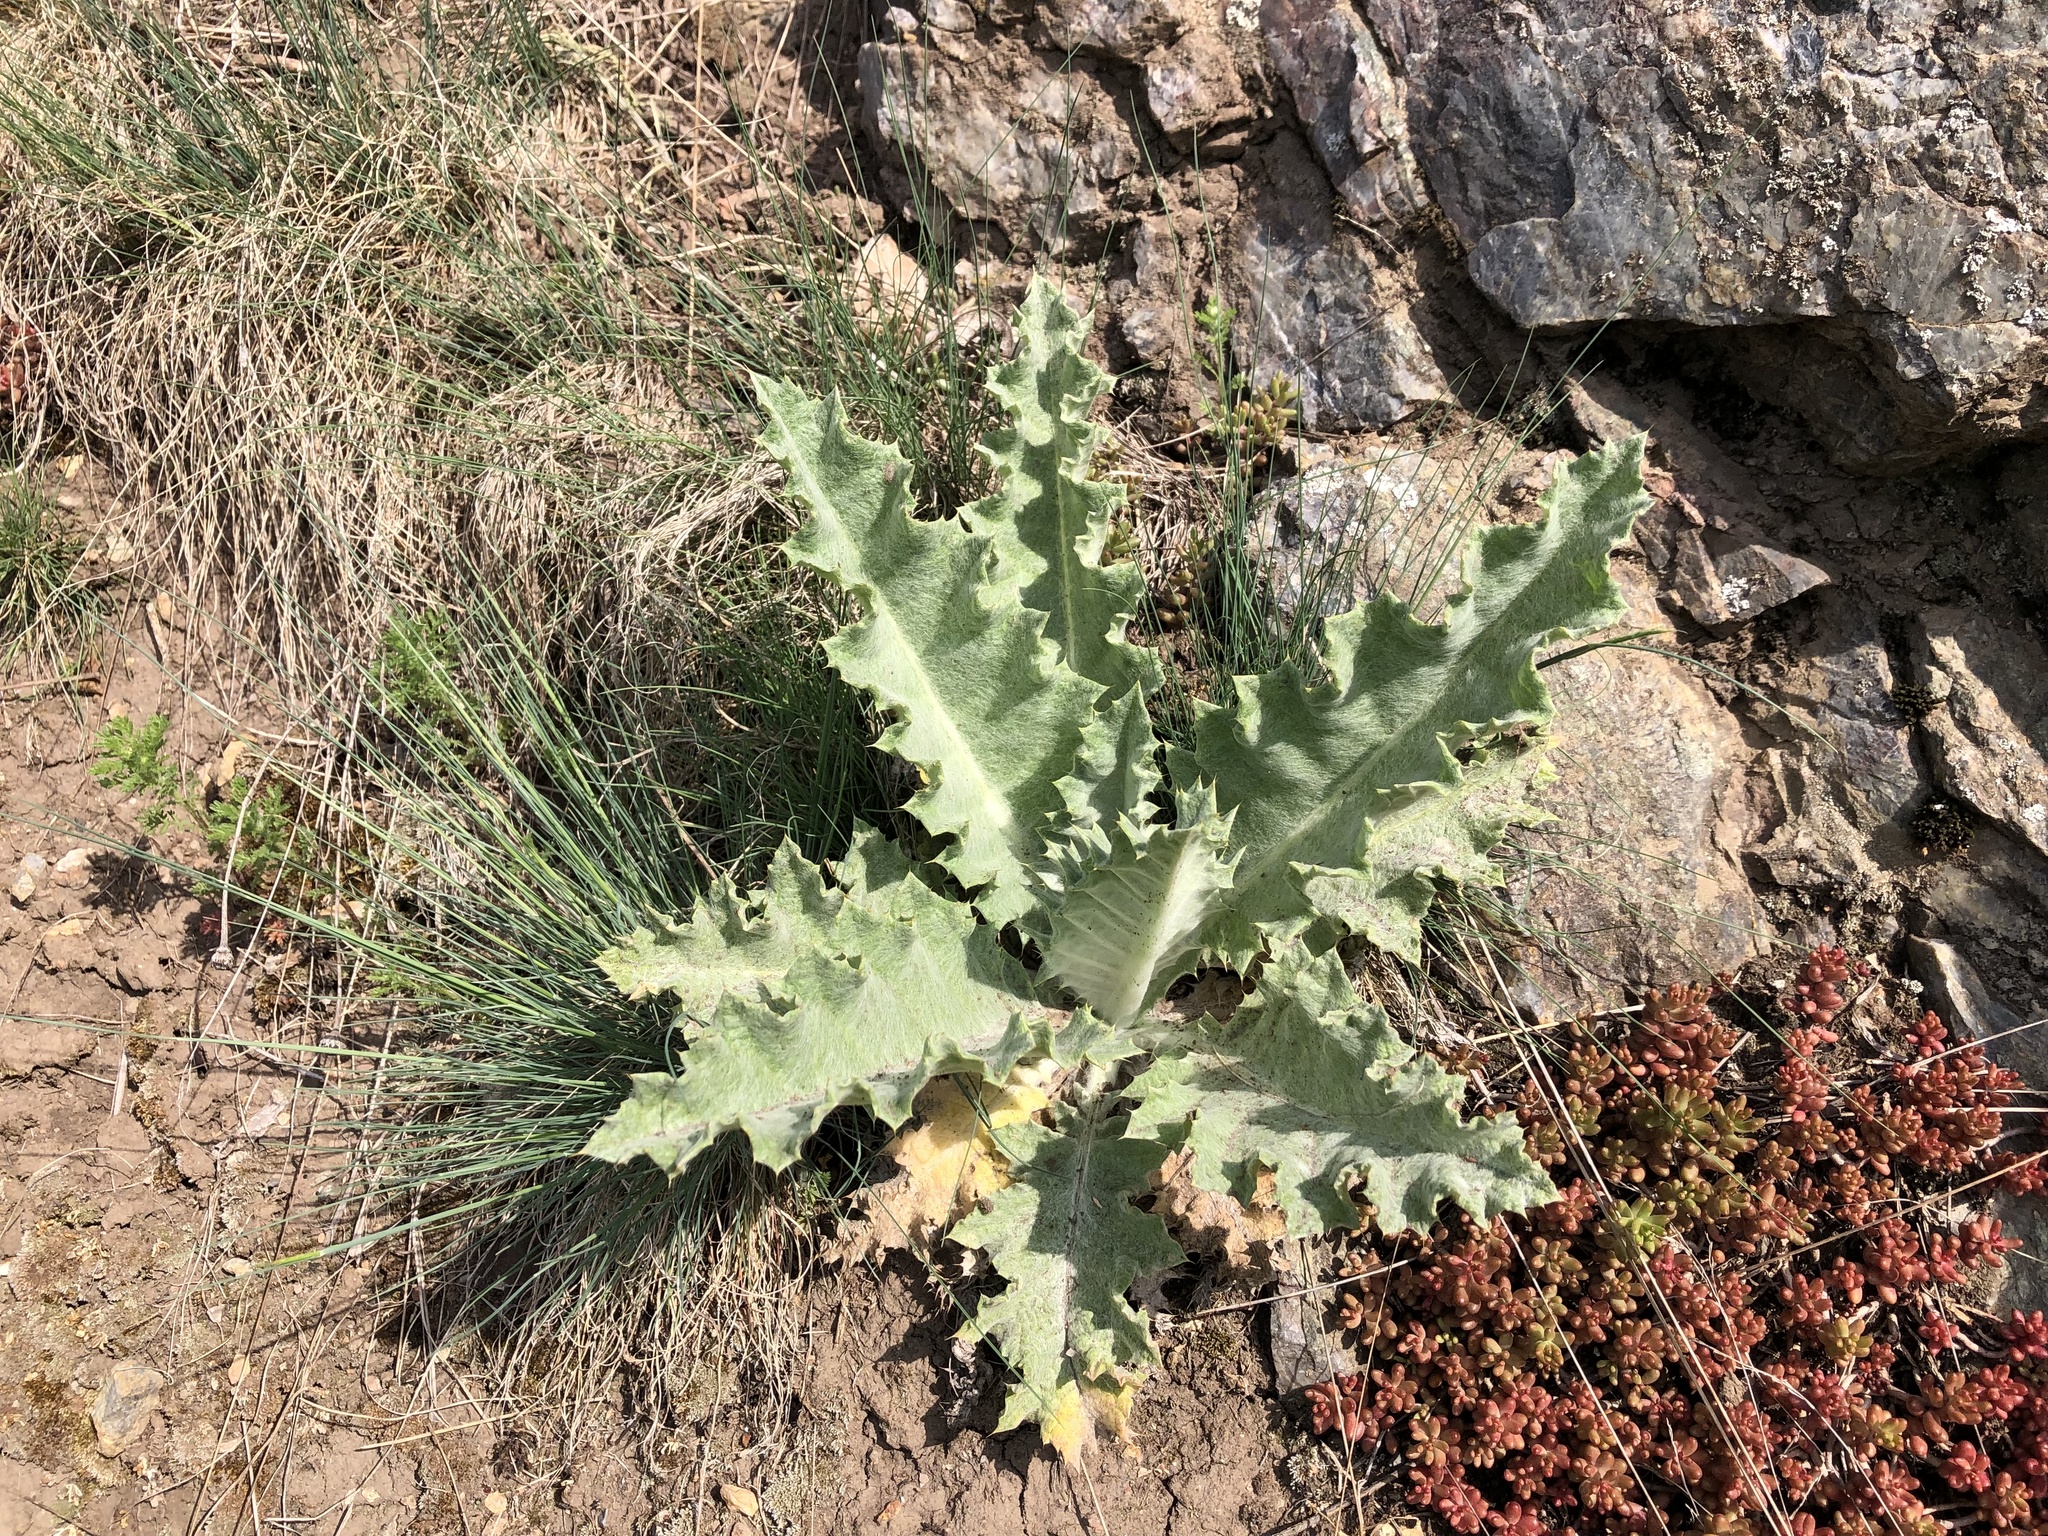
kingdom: Plantae
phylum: Tracheophyta
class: Magnoliopsida
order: Asterales
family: Asteraceae
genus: Onopordum
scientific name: Onopordum acanthium
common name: Scotch thistle
